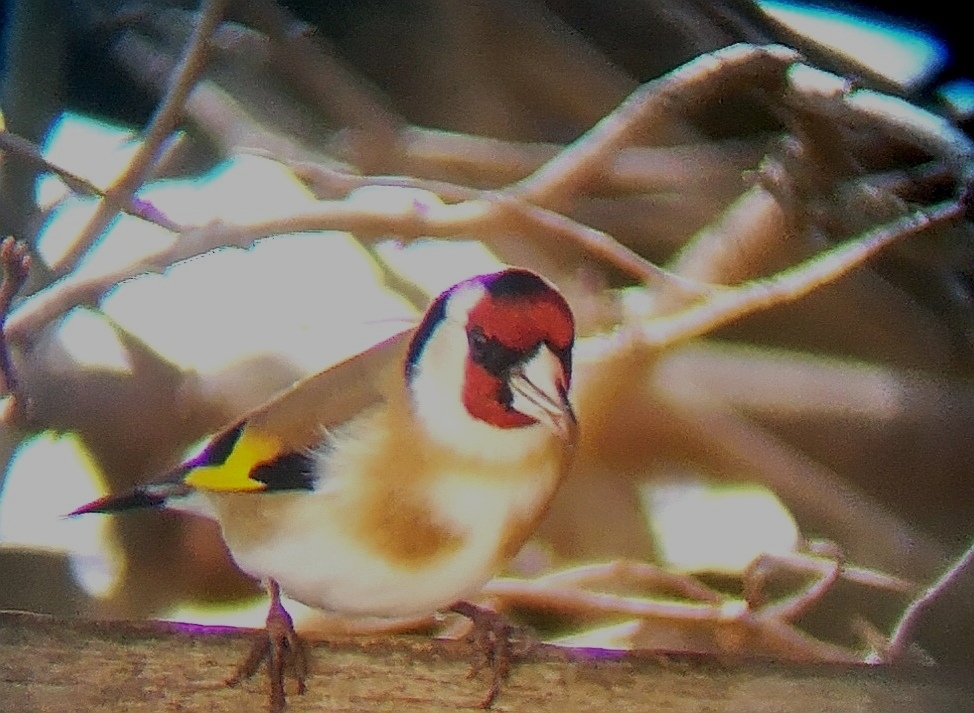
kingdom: Animalia
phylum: Chordata
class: Aves
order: Passeriformes
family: Fringillidae
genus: Carduelis
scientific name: Carduelis carduelis
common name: European goldfinch
